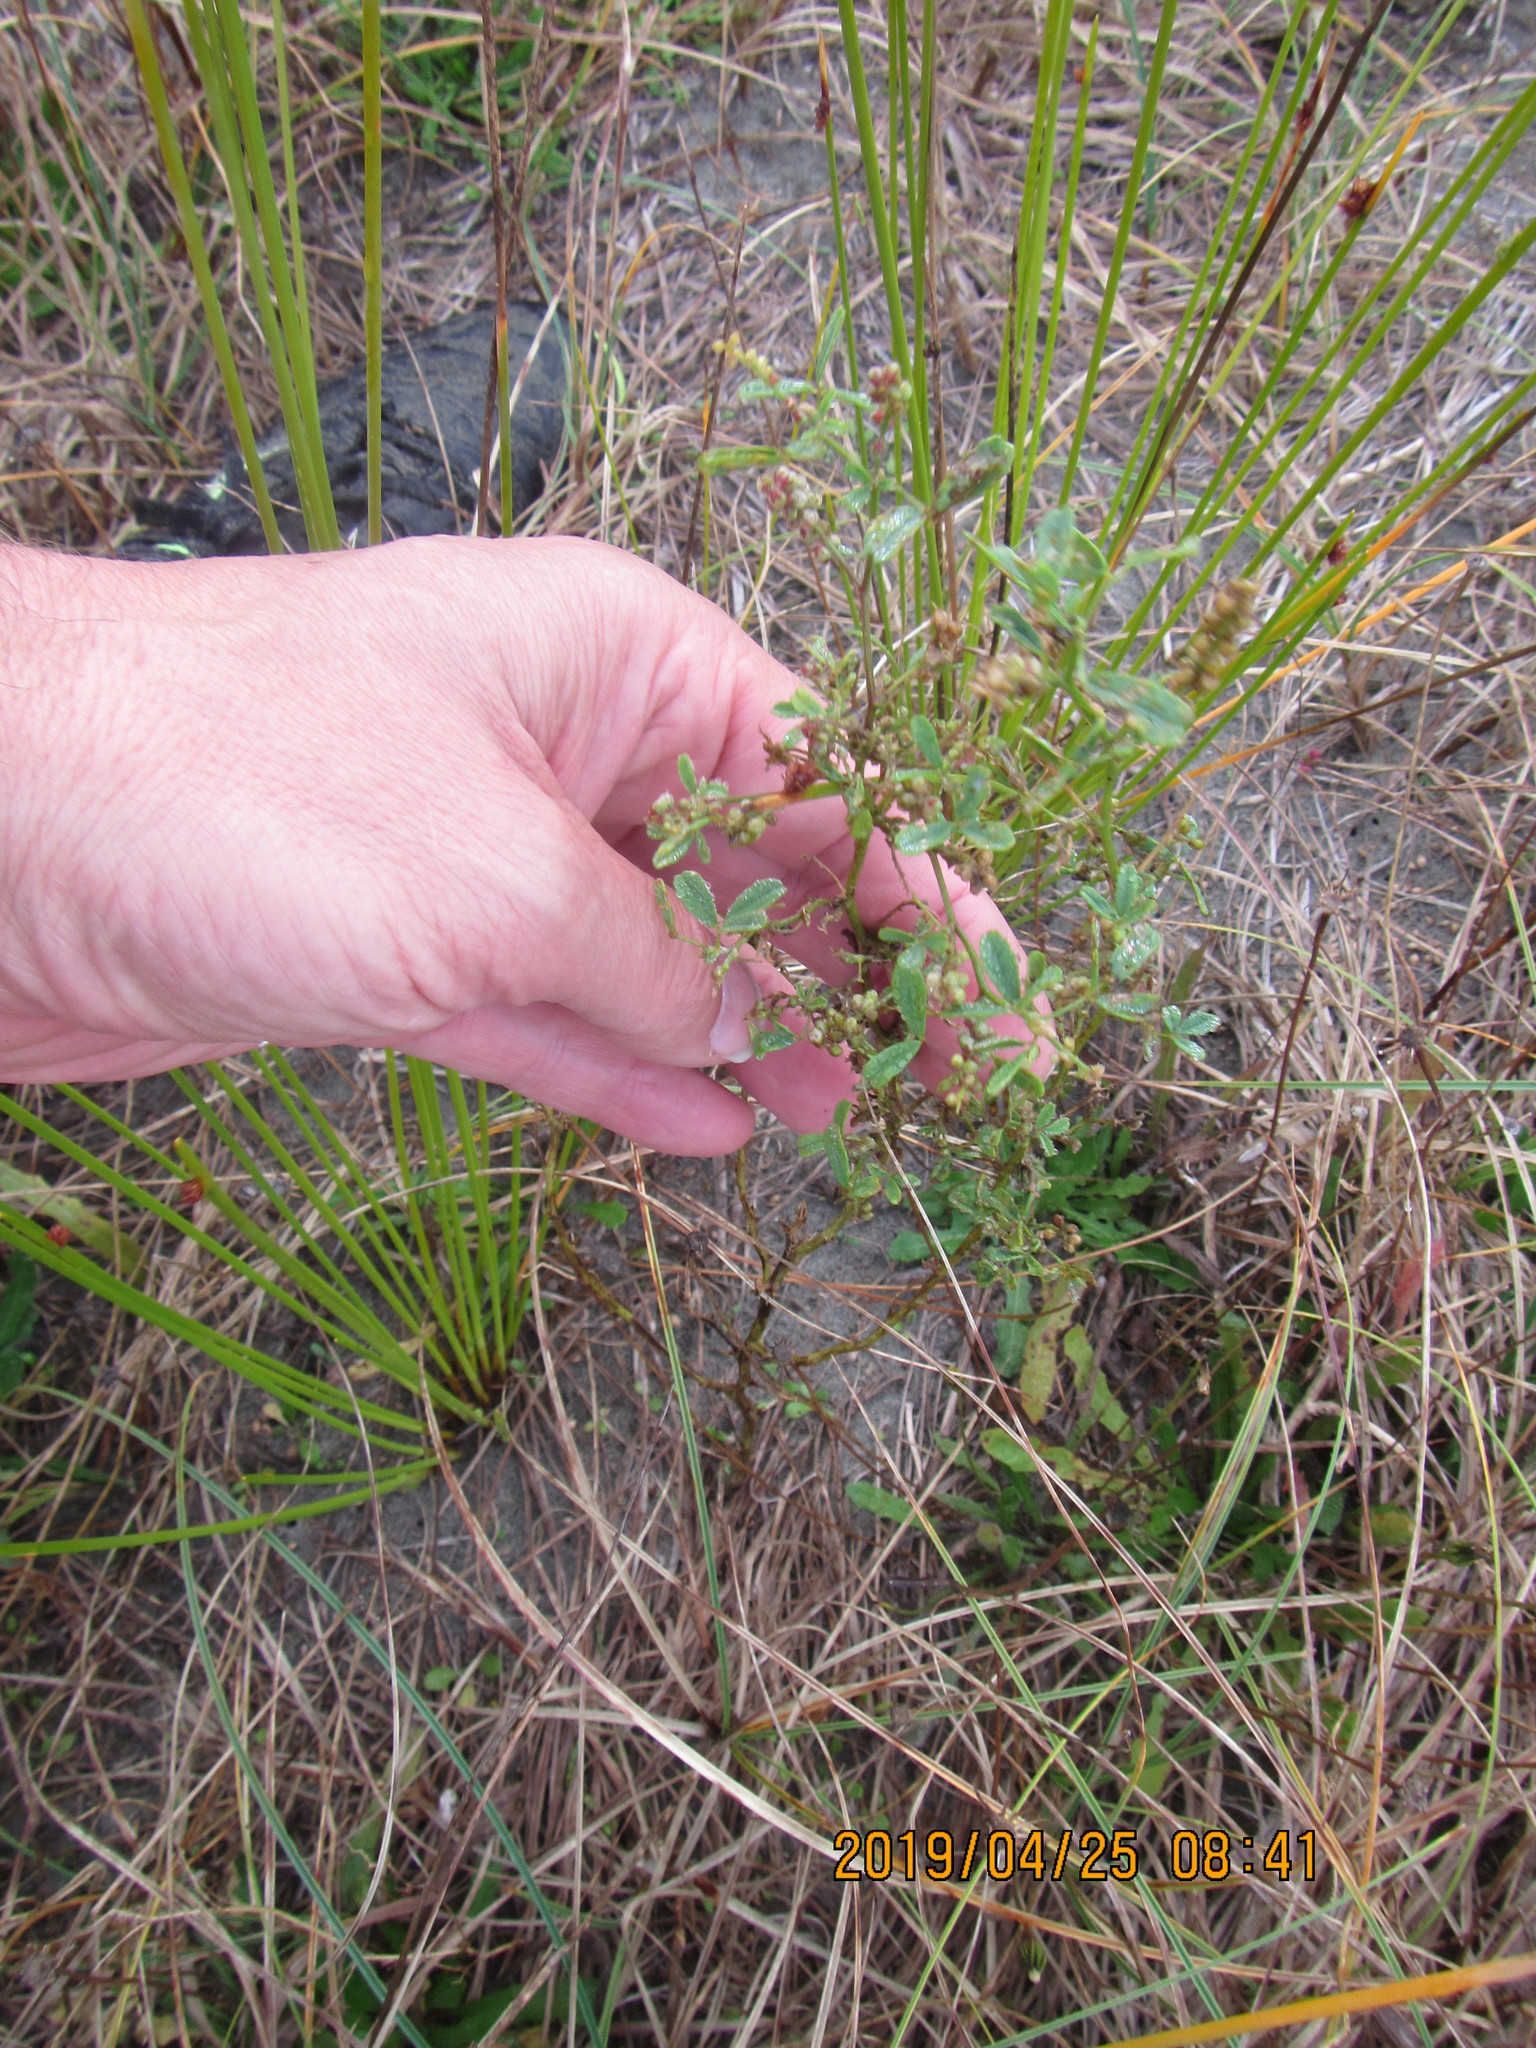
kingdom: Plantae
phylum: Tracheophyta
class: Magnoliopsida
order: Fabales
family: Fabaceae
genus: Melilotus
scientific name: Melilotus indicus
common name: Small melilot
